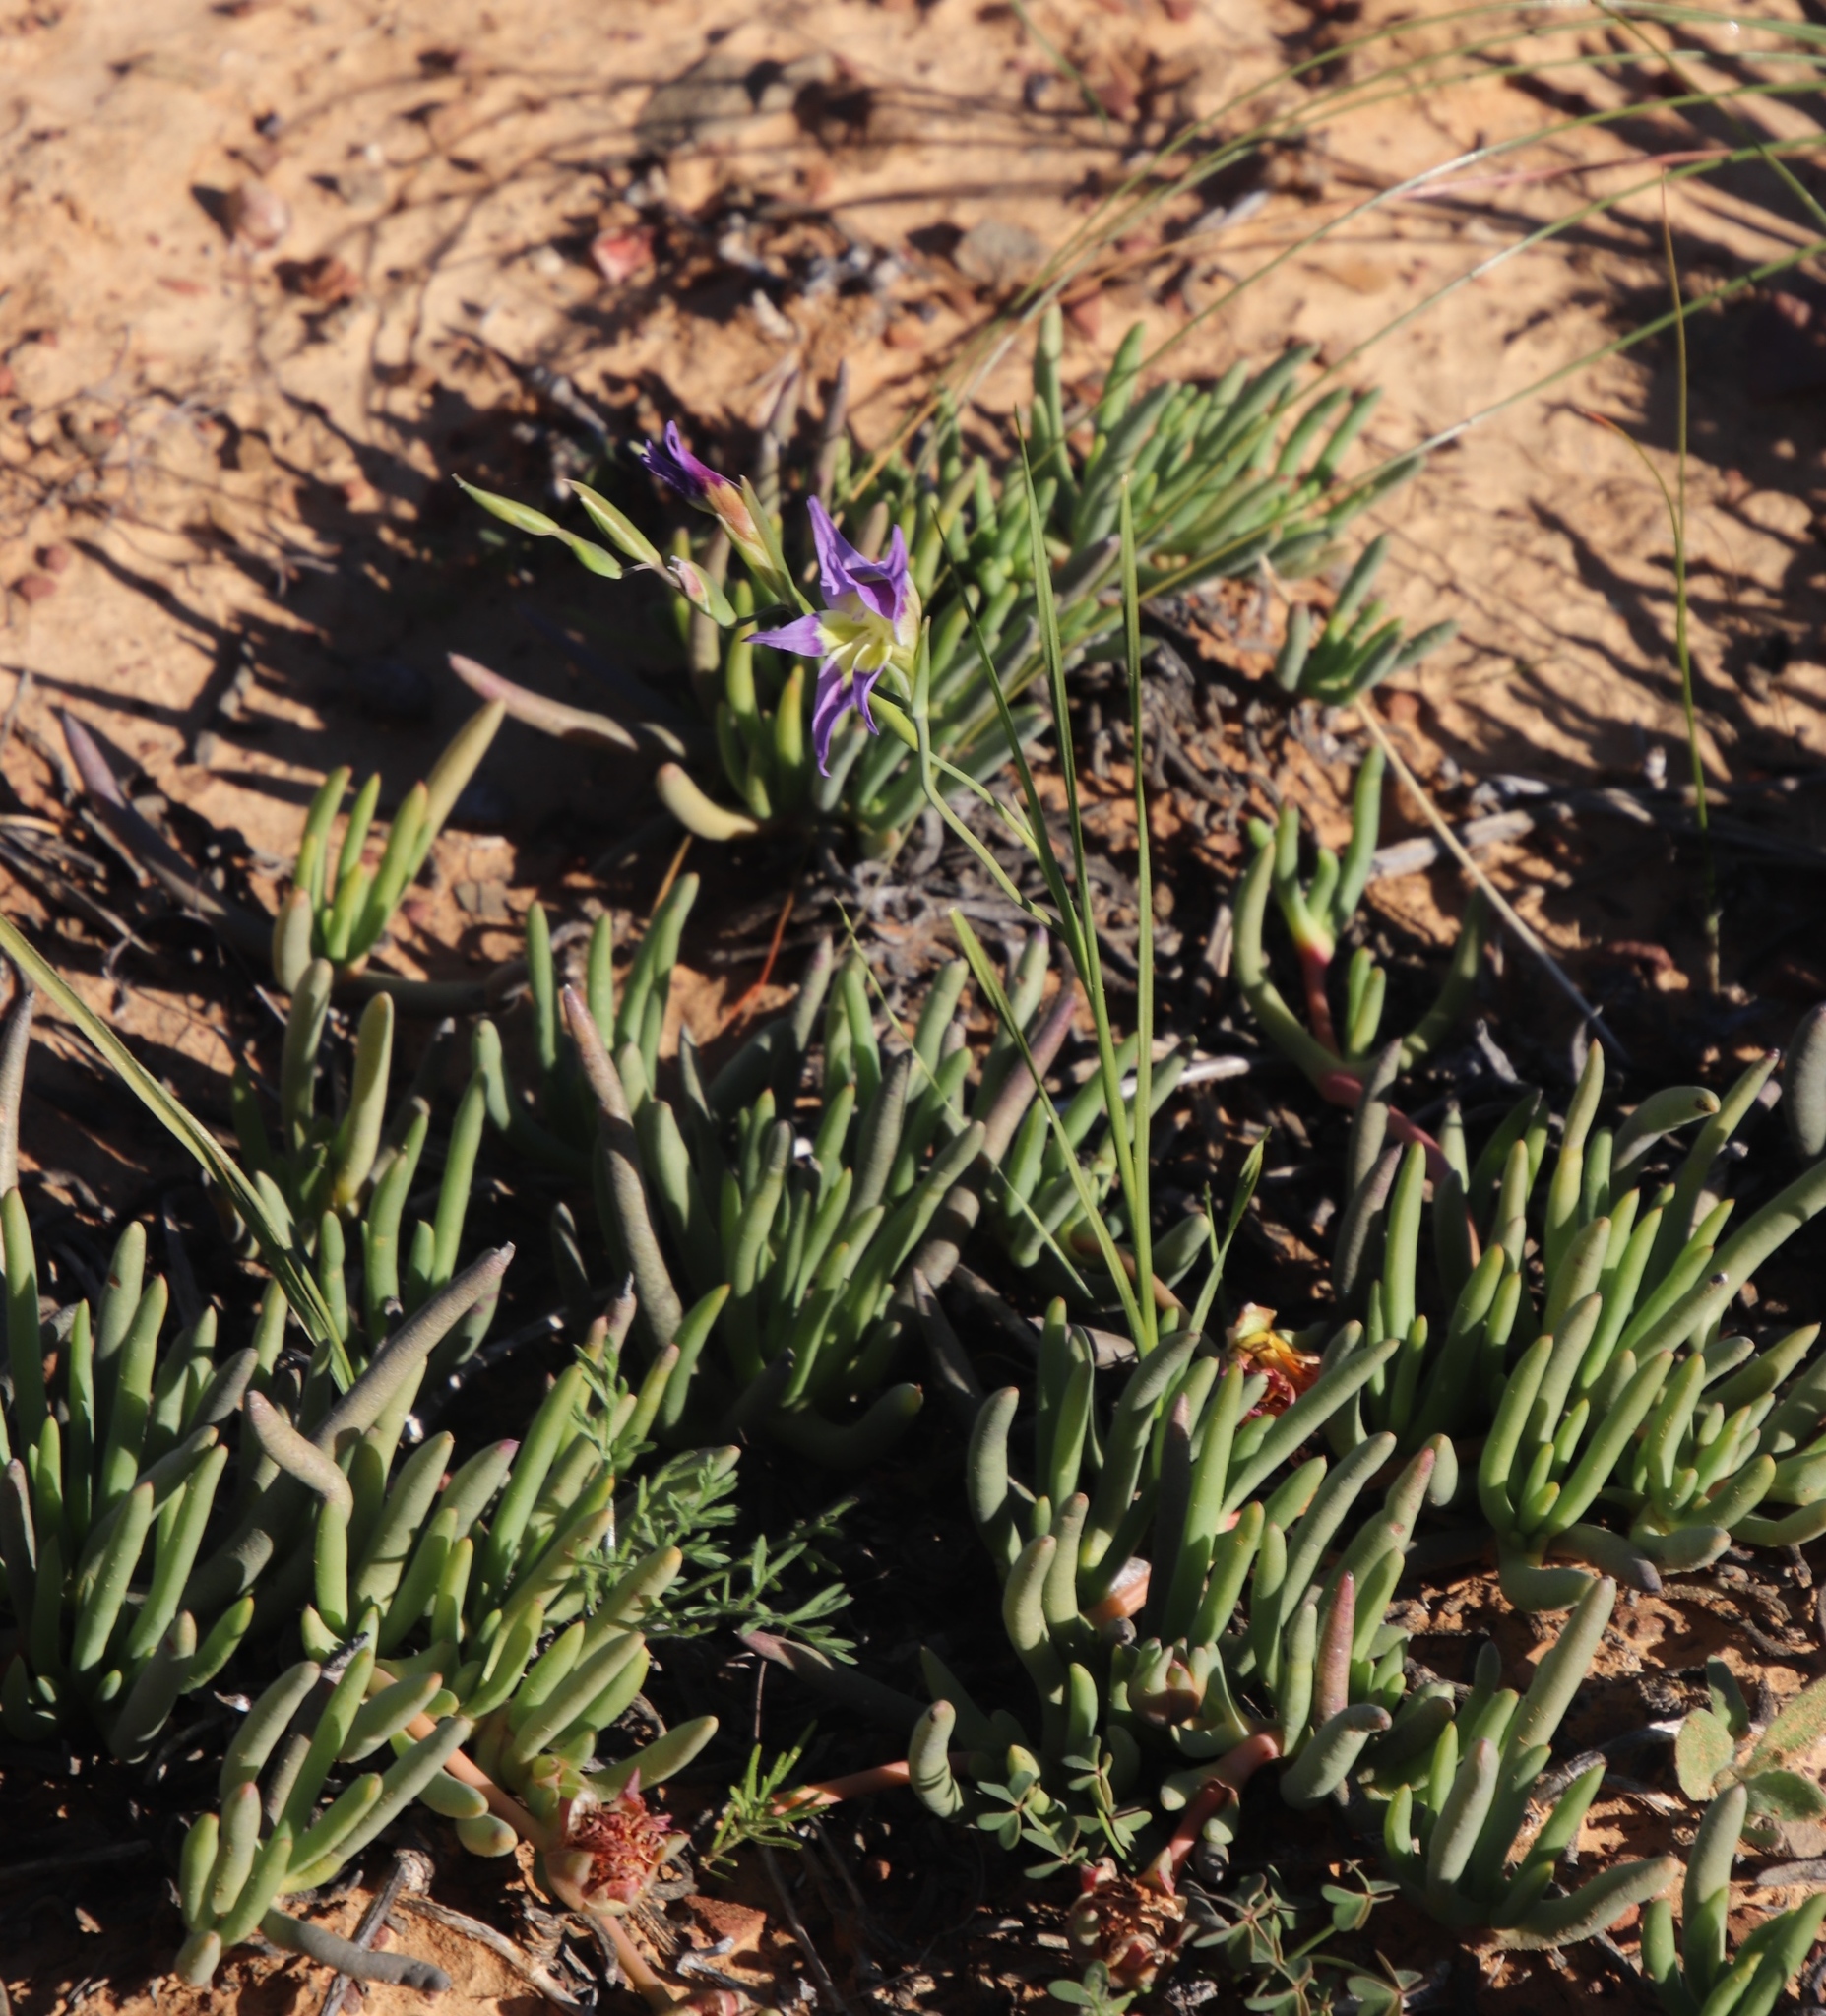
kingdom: Plantae
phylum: Tracheophyta
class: Liliopsida
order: Asparagales
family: Iridaceae
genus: Gladiolus
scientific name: Gladiolus venustus
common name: Purple kalkoentjie
